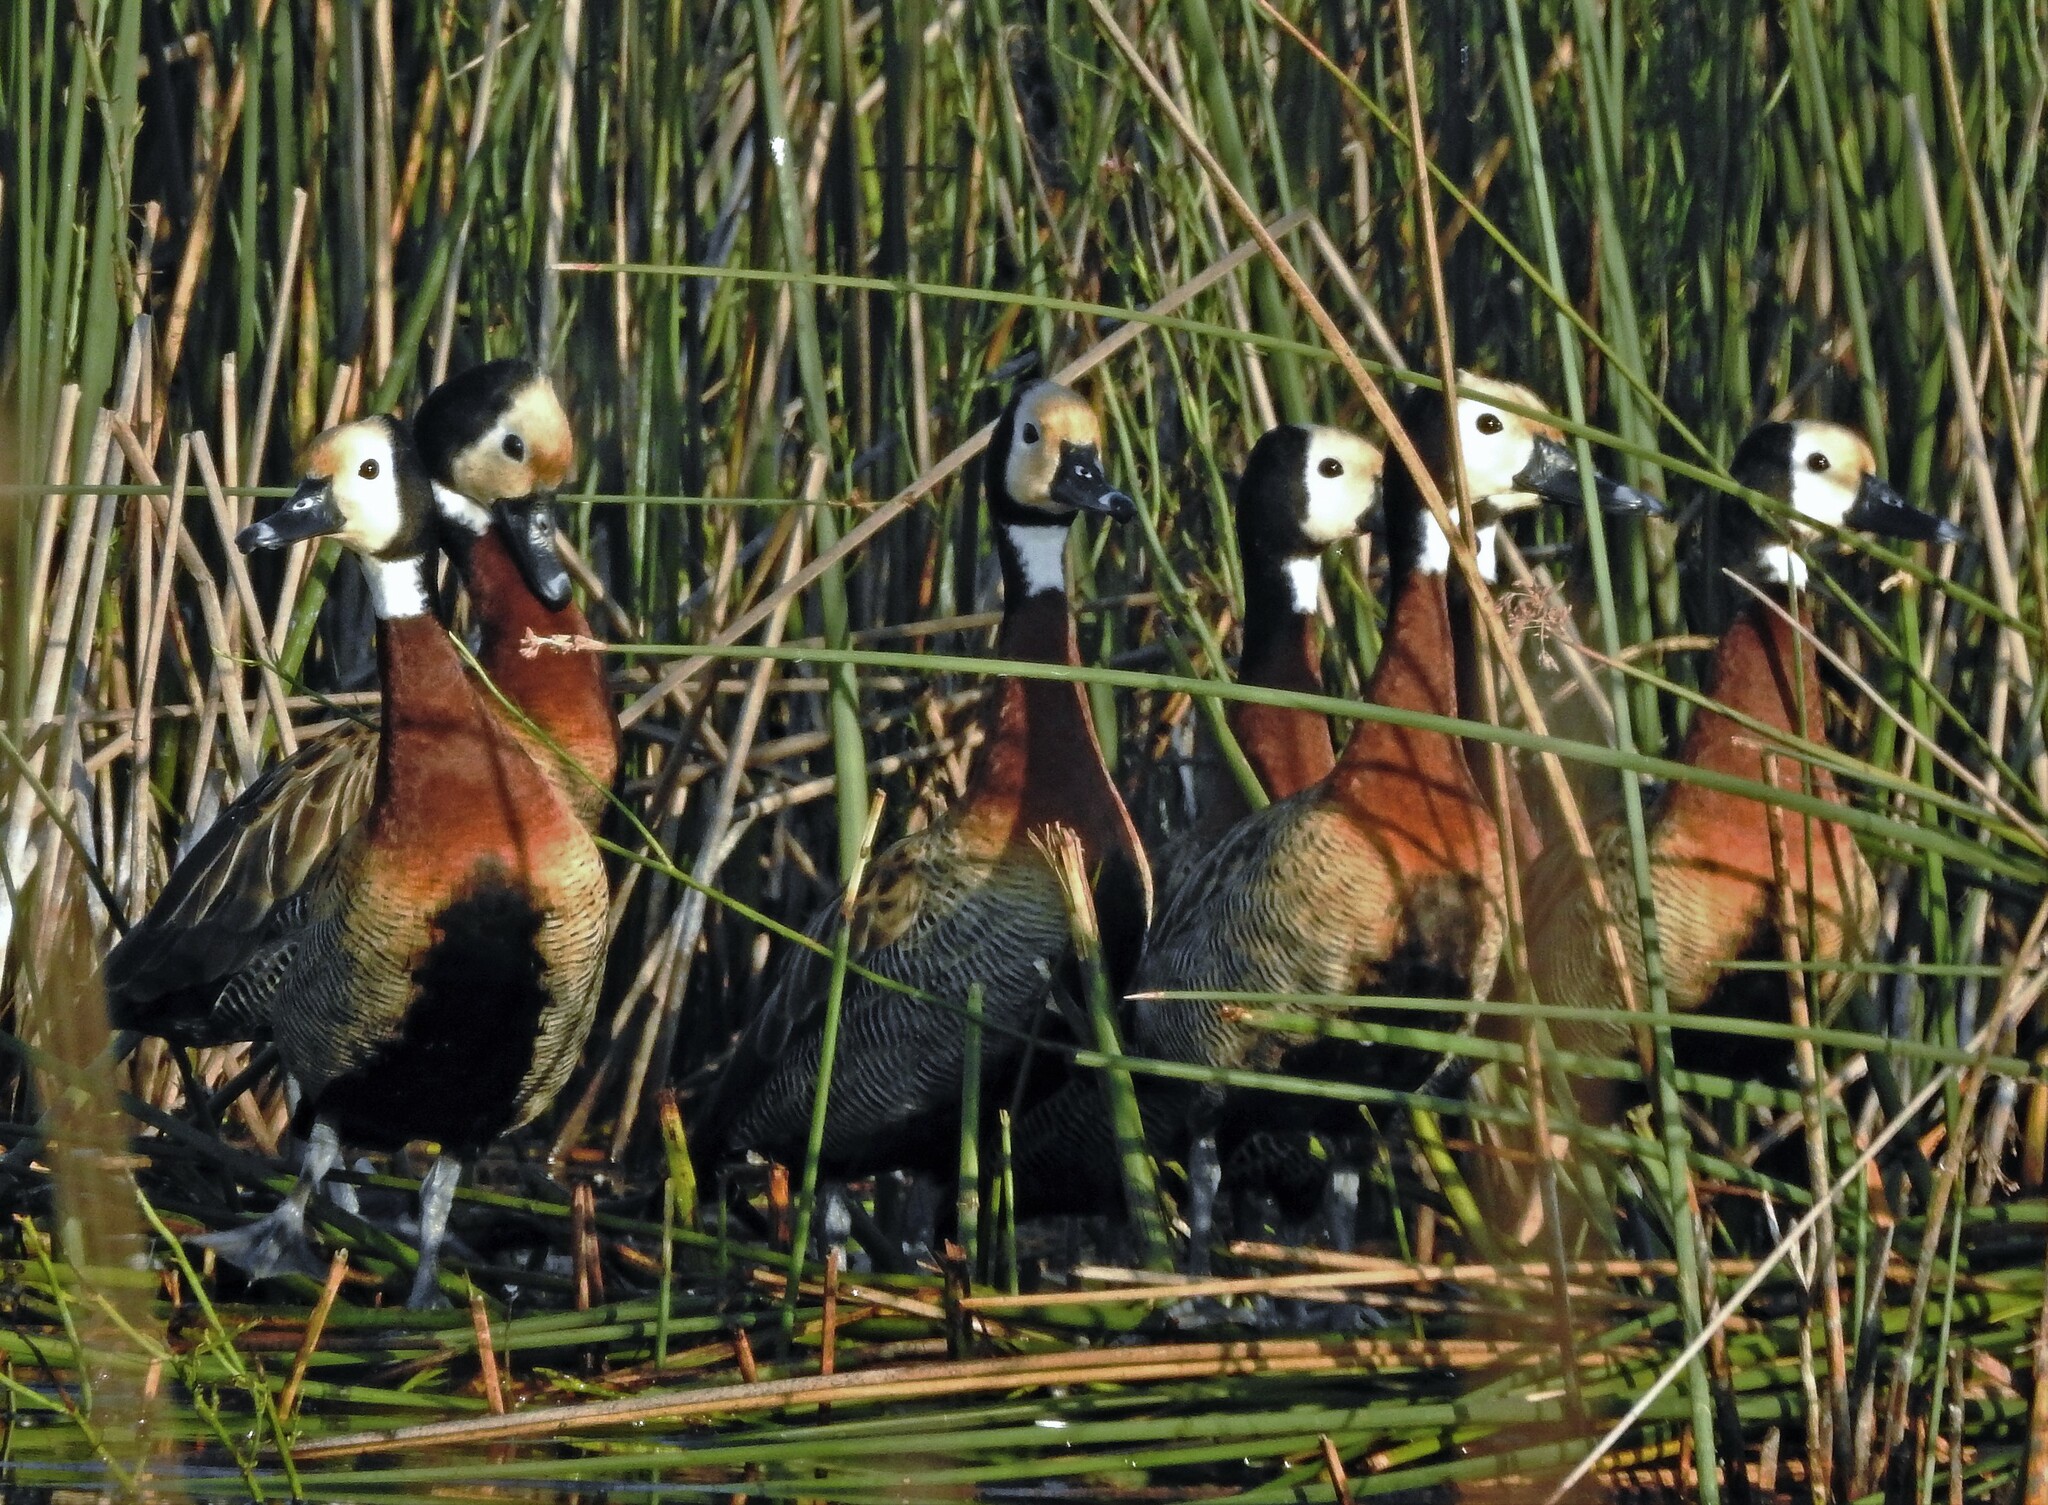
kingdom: Animalia
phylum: Chordata
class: Aves
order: Anseriformes
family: Anatidae
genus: Dendrocygna
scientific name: Dendrocygna viduata
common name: White-faced whistling duck
